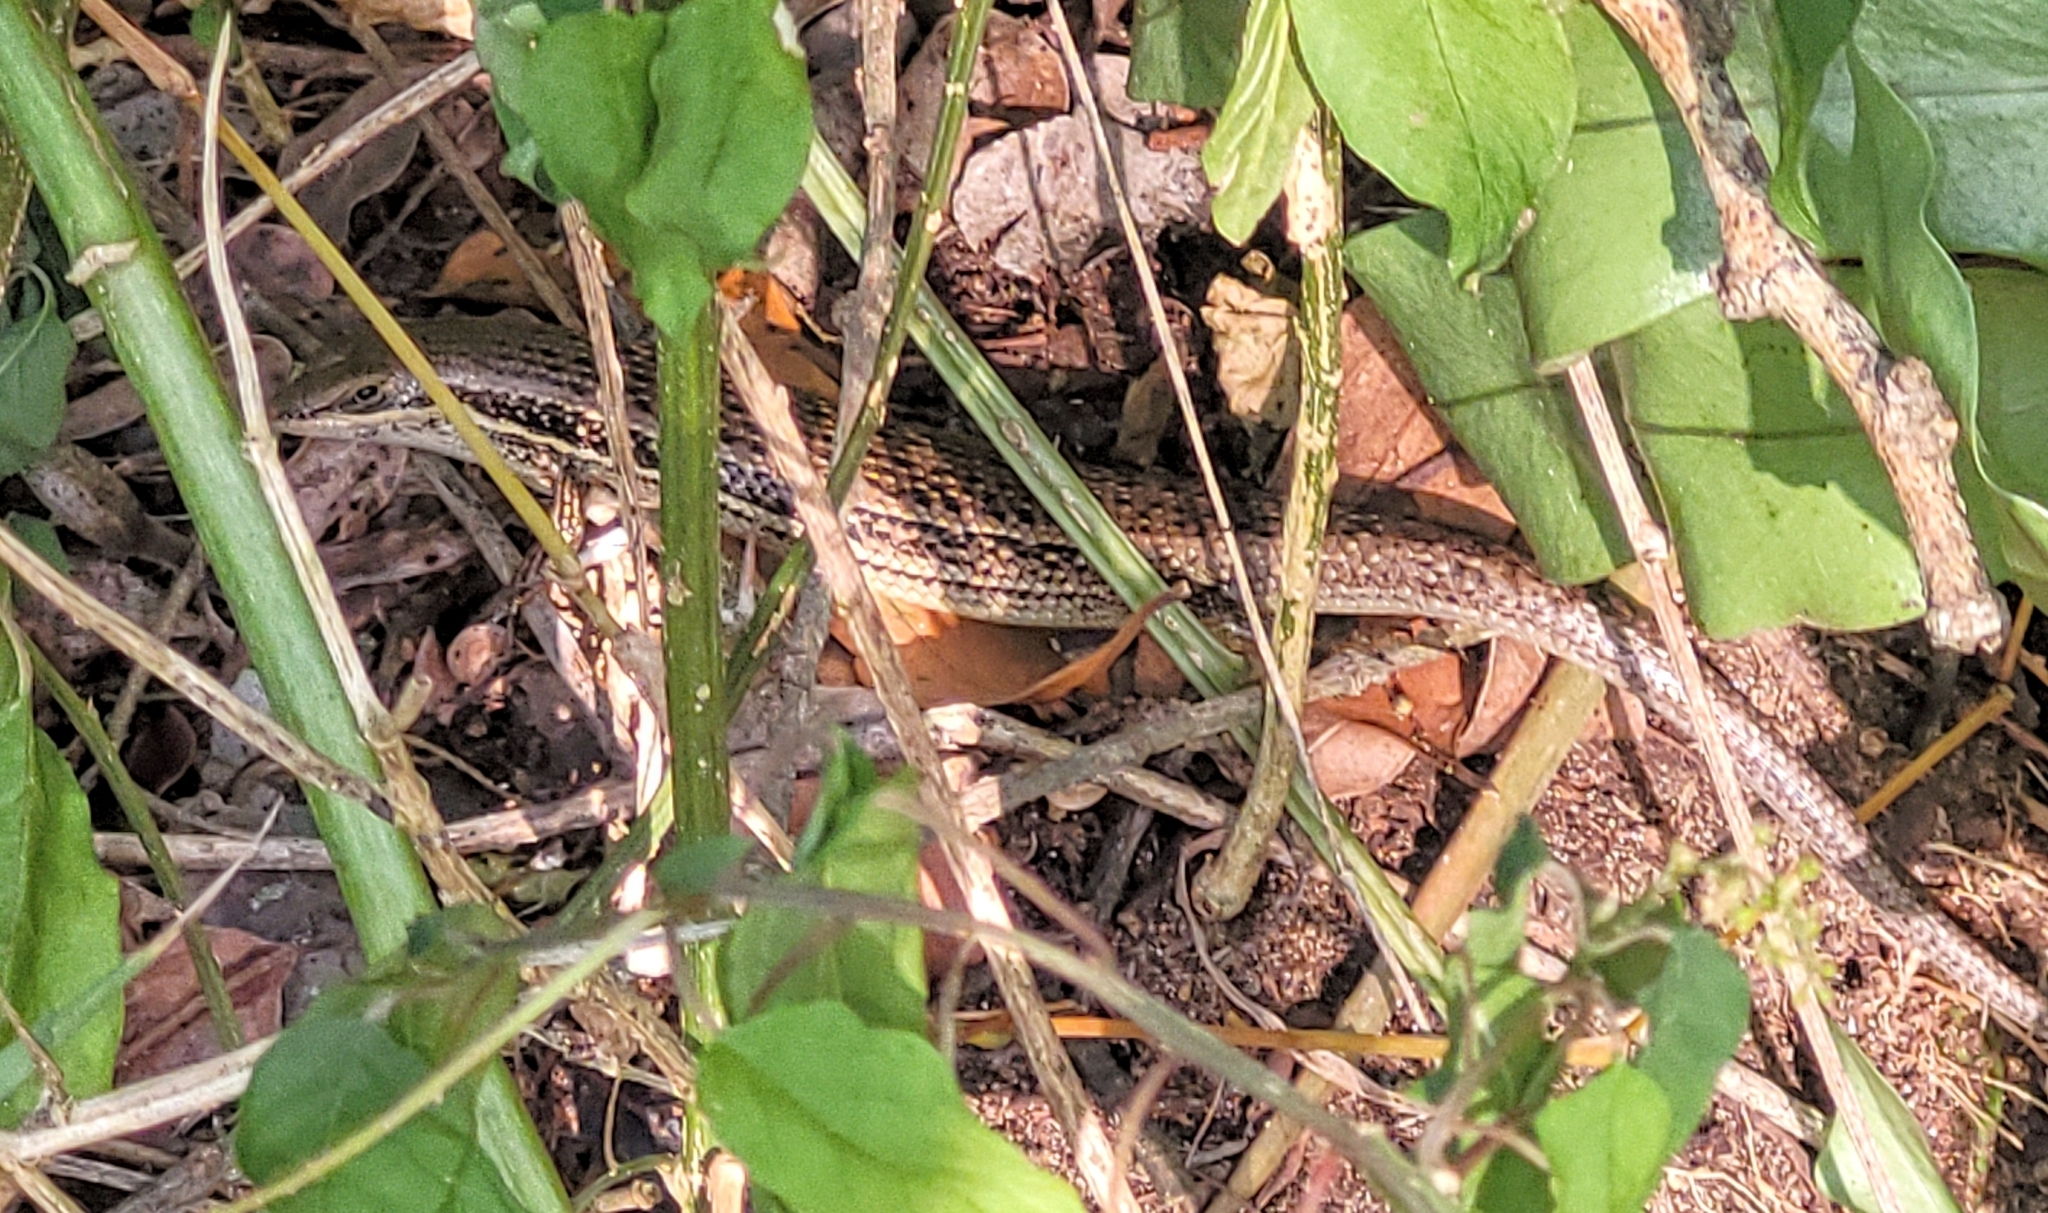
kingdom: Animalia
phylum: Chordata
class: Squamata
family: Scincidae
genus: Trachylepis
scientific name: Trachylepis depressa
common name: Eastern coastal skink
